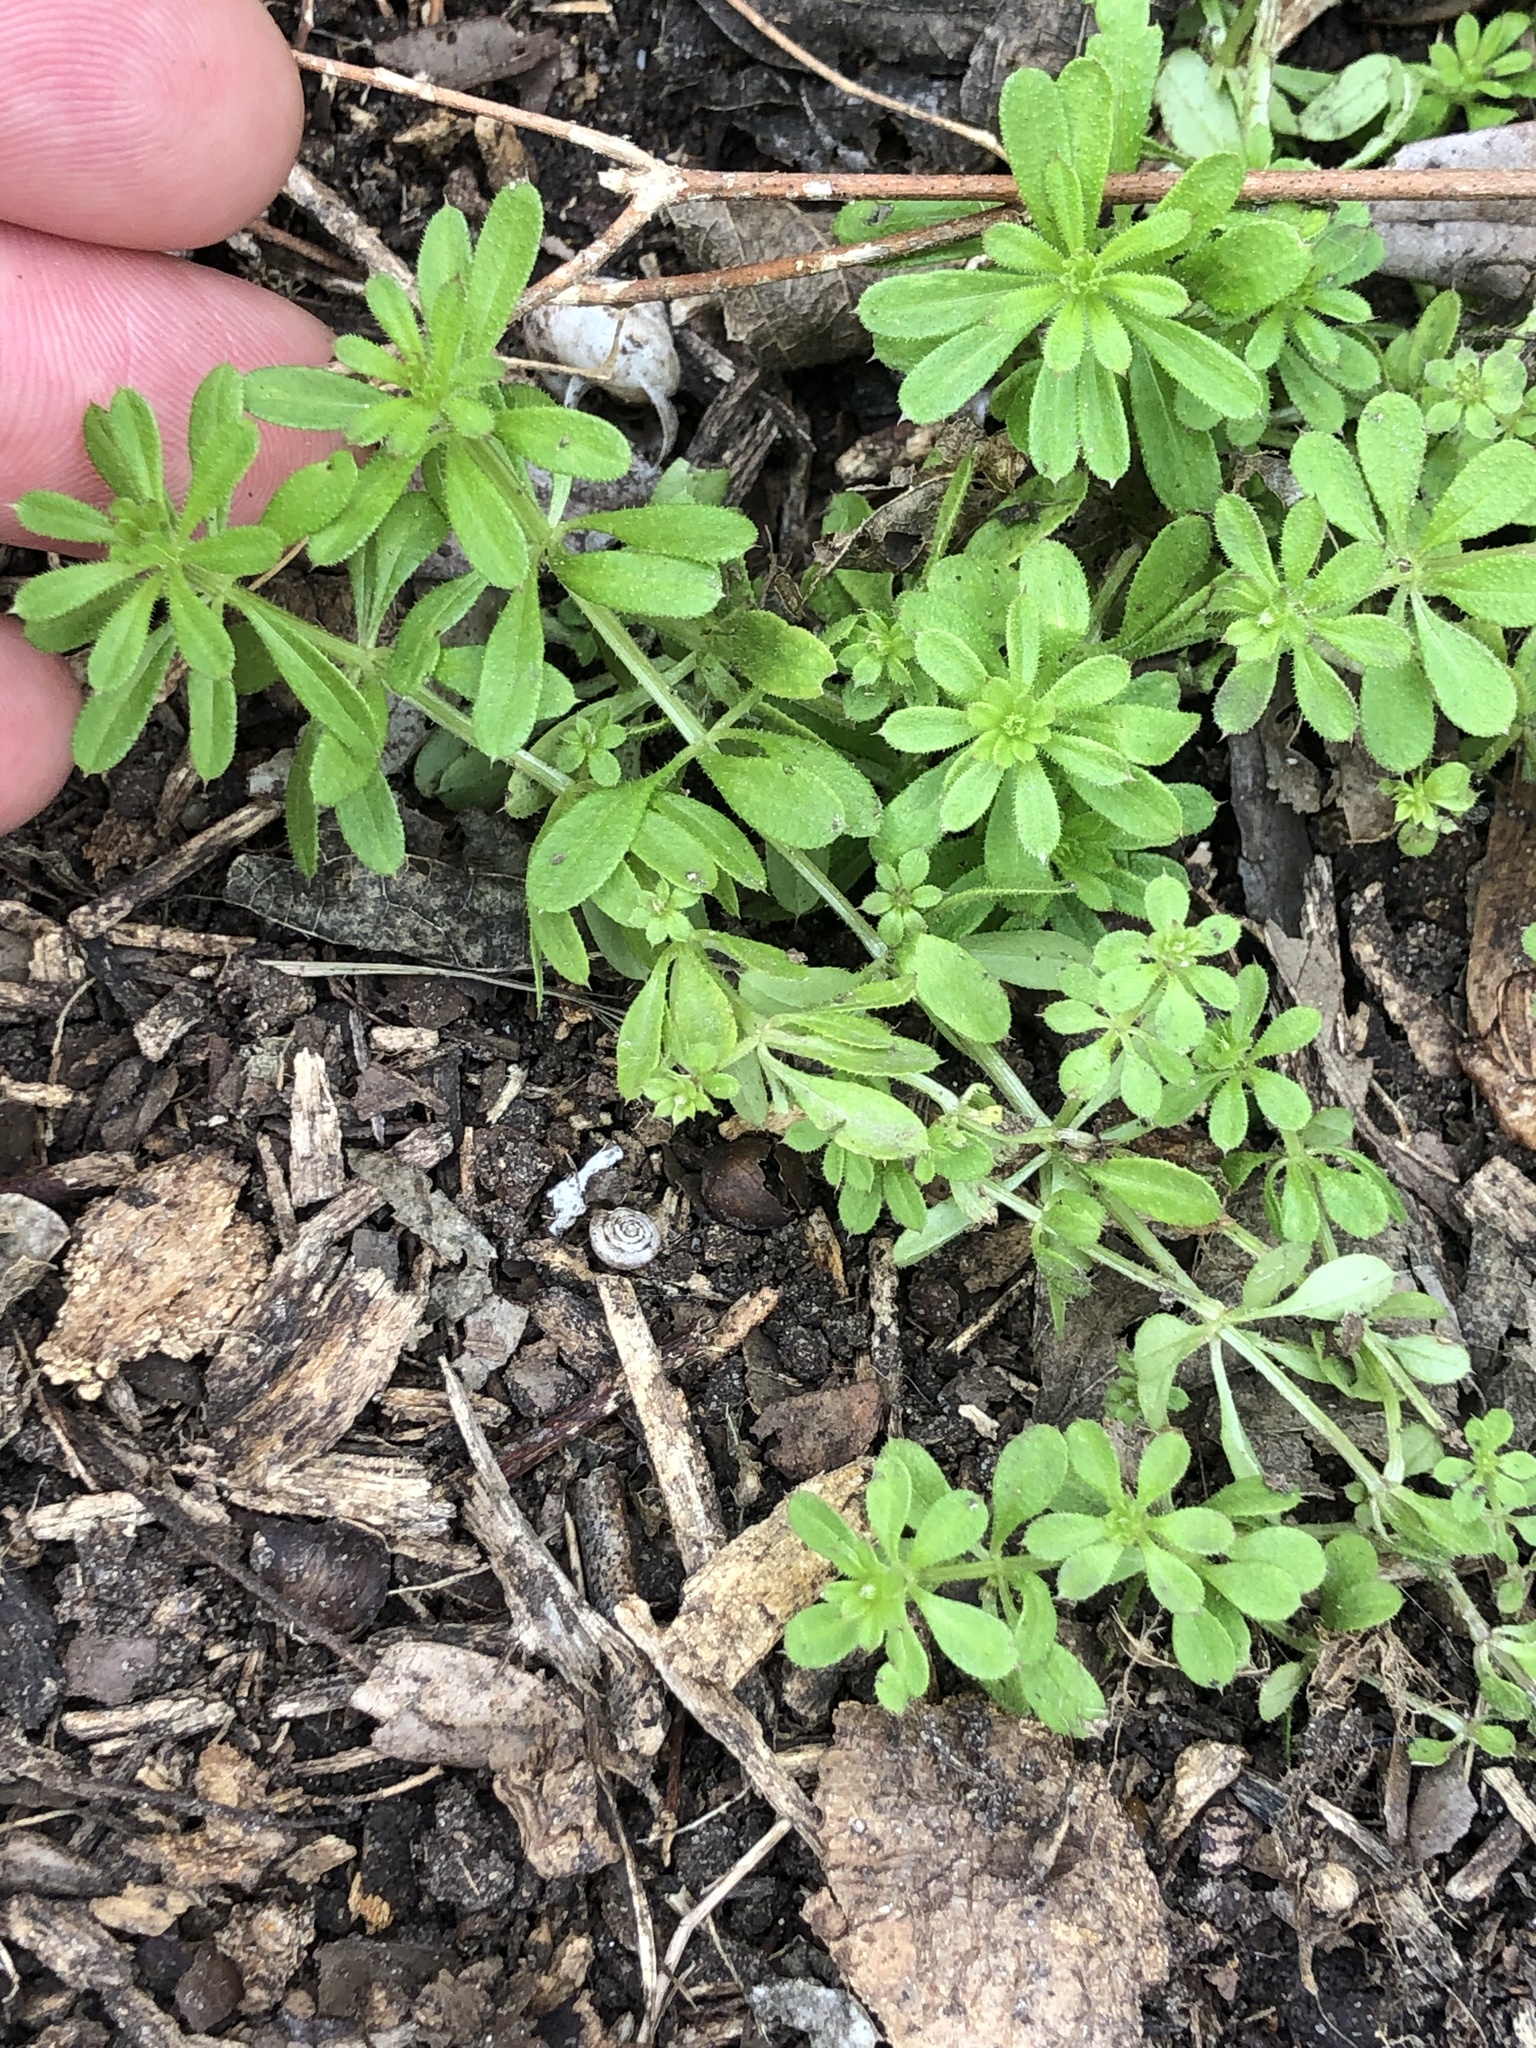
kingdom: Plantae
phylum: Tracheophyta
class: Magnoliopsida
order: Gentianales
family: Rubiaceae
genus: Galium
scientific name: Galium aparine
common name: Cleavers
